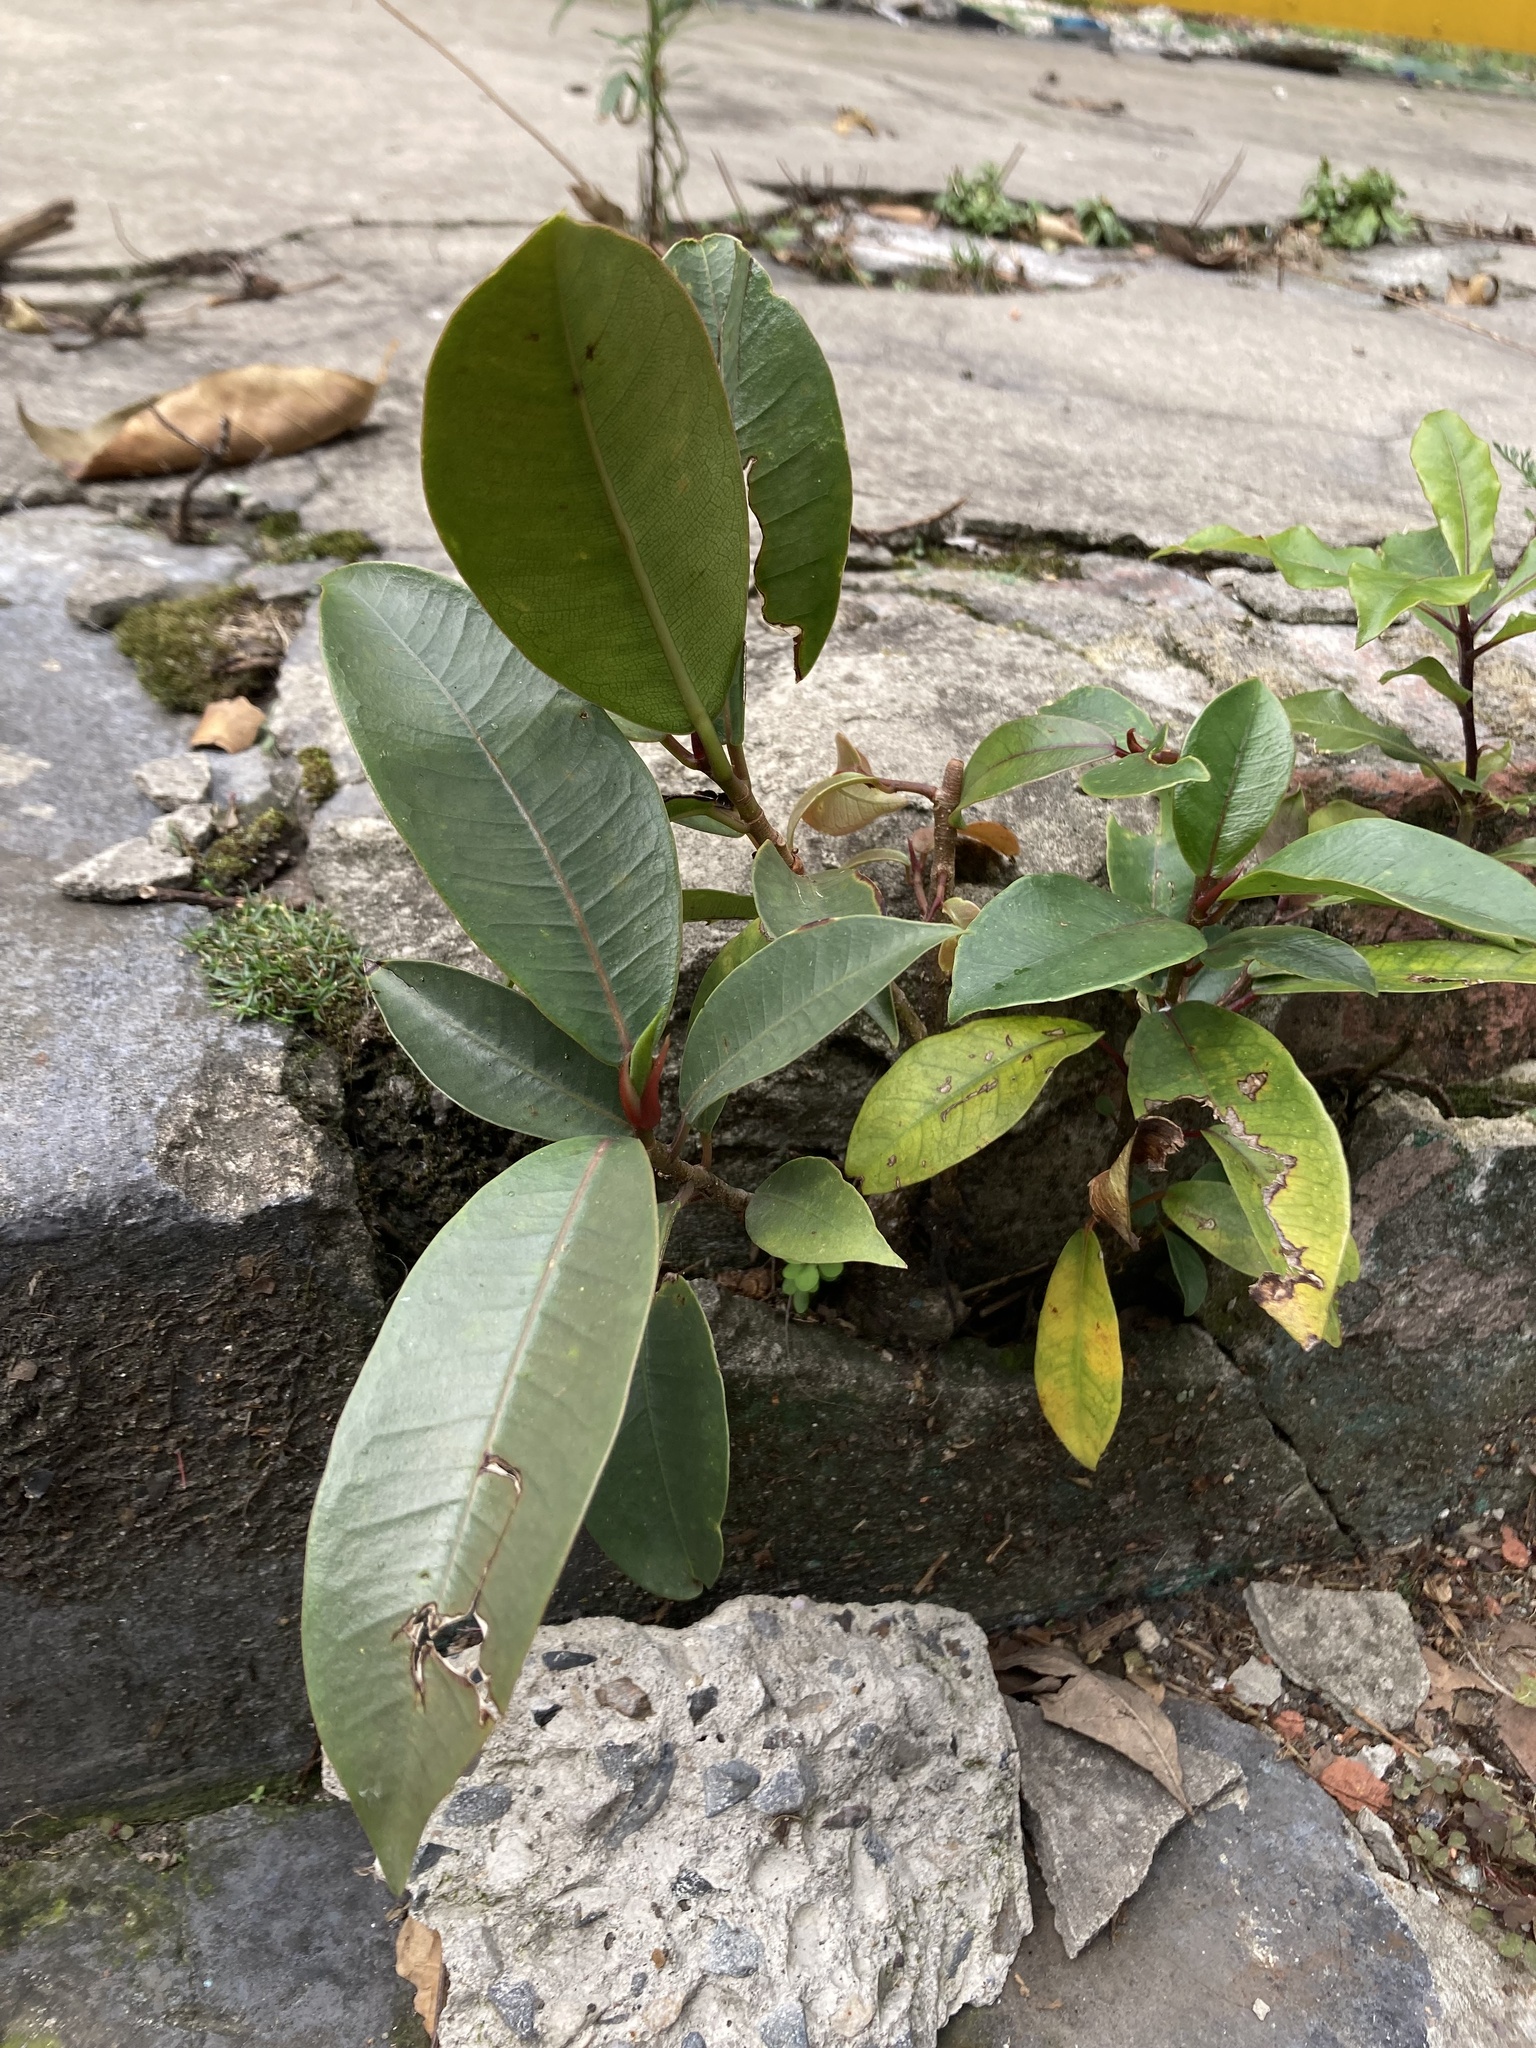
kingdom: Plantae
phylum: Tracheophyta
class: Magnoliopsida
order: Rosales
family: Moraceae
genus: Ficus
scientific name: Ficus americana
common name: Jamaican cherry fig
